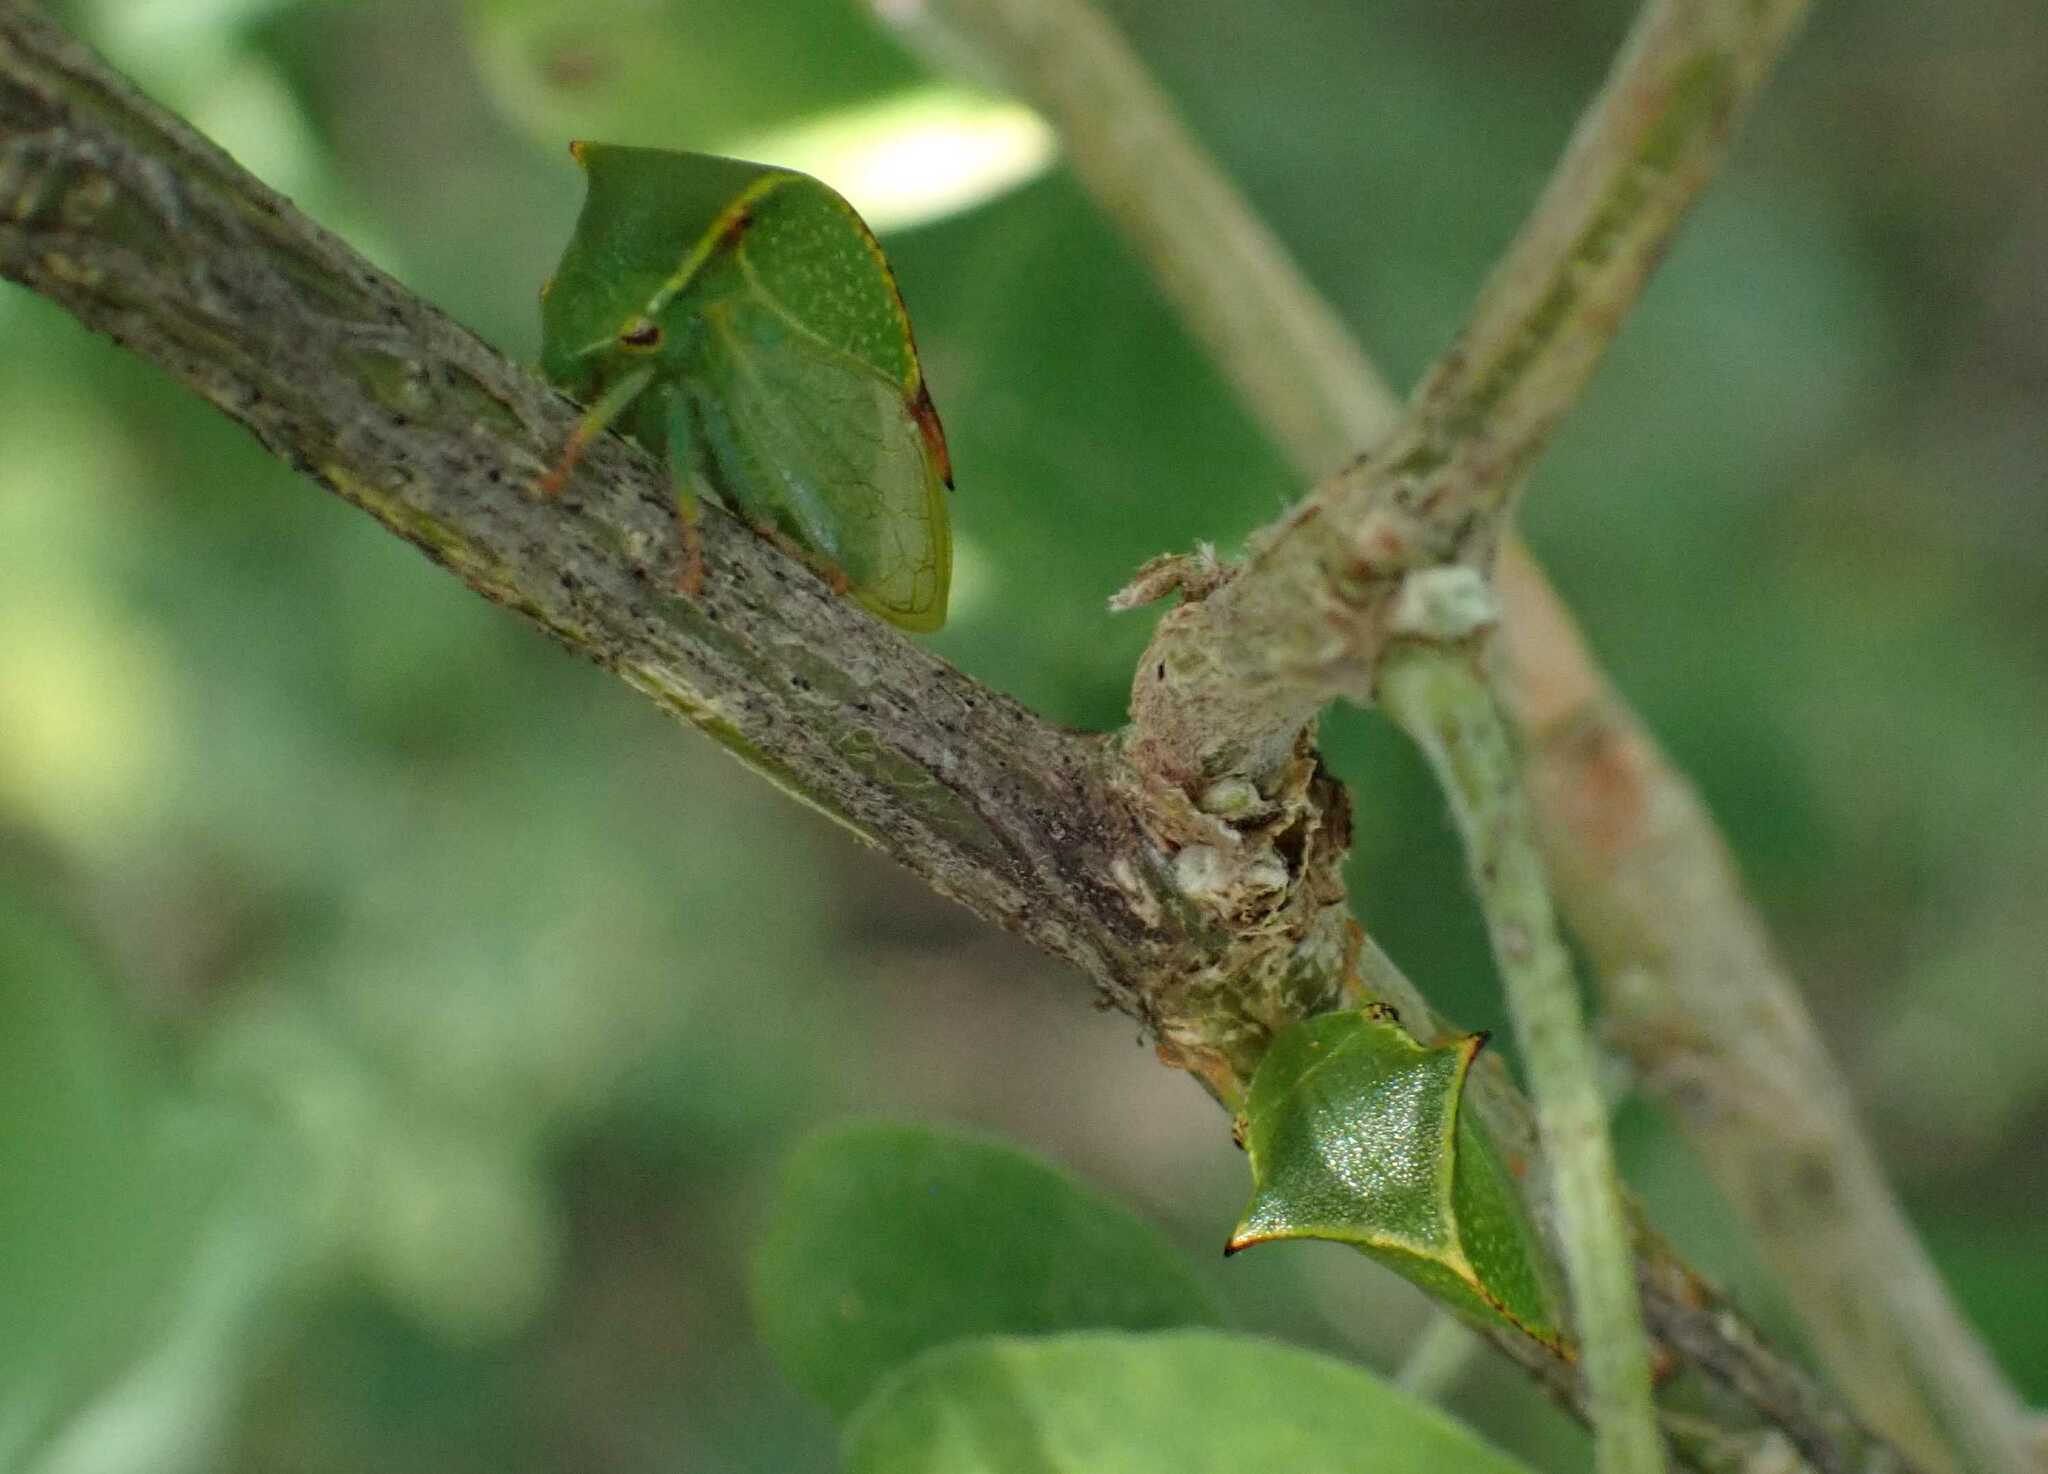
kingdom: Animalia
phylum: Arthropoda
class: Insecta
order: Hemiptera
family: Membracidae
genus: Stictocephala
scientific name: Stictocephala bisonia
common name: American buffalo treehopper
